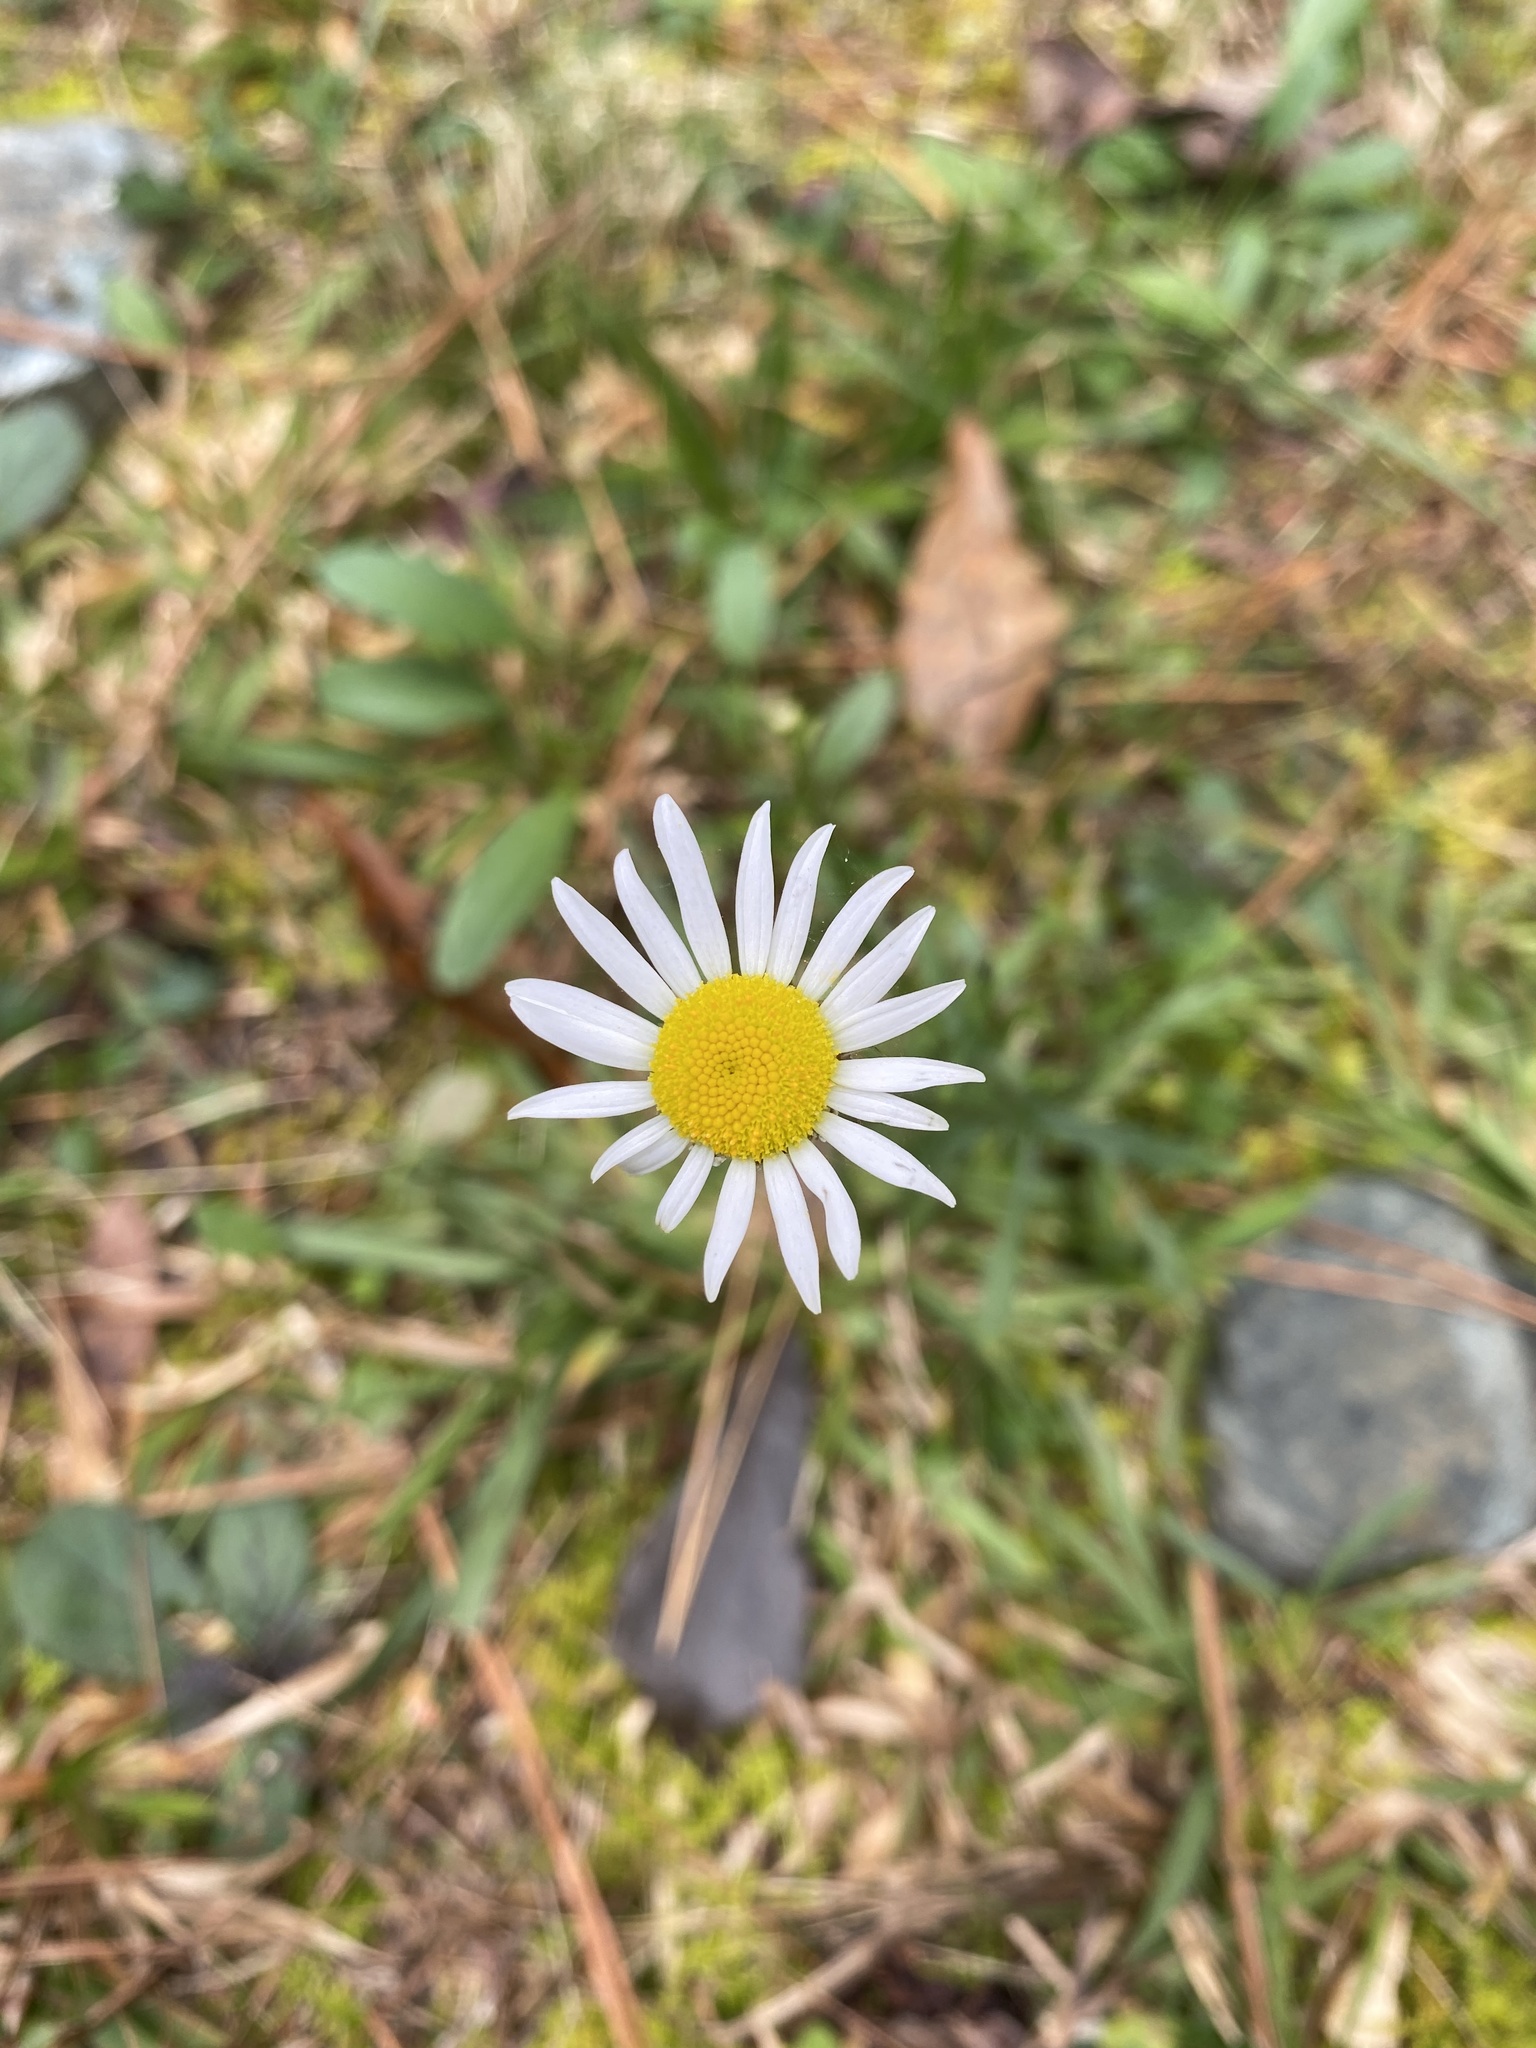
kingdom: Plantae
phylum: Tracheophyta
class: Magnoliopsida
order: Asterales
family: Asteraceae
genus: Leucanthemum
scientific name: Leucanthemum vulgare
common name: Oxeye daisy
